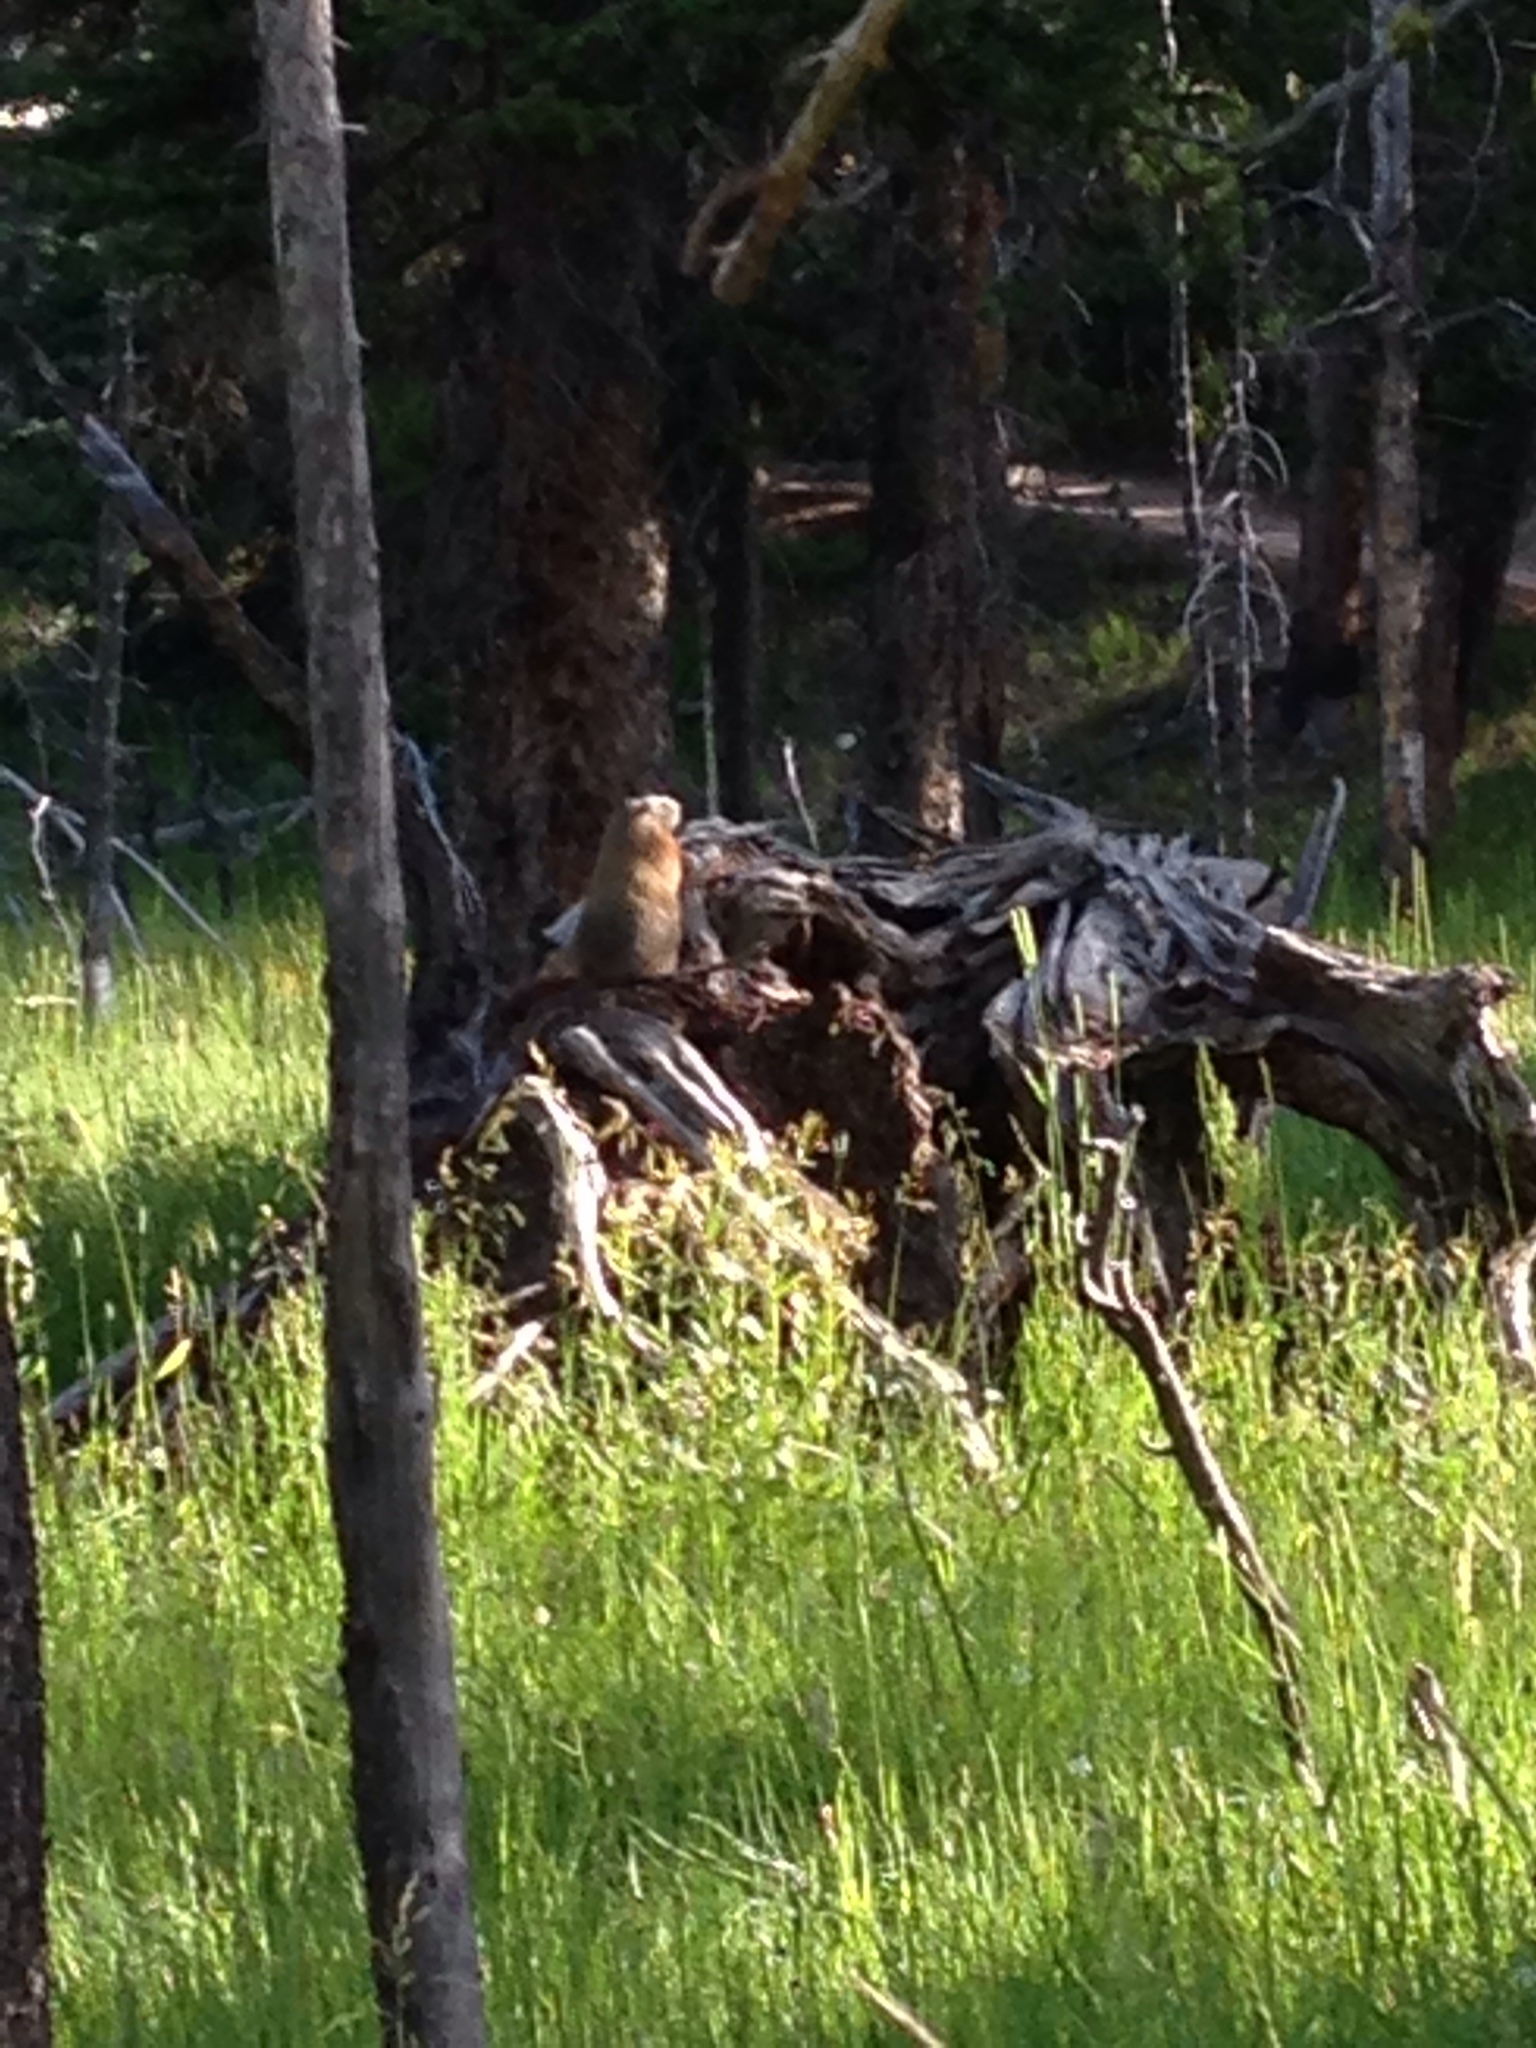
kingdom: Animalia
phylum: Chordata
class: Mammalia
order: Rodentia
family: Sciuridae
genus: Marmota
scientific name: Marmota flaviventris
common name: Yellow-bellied marmot
